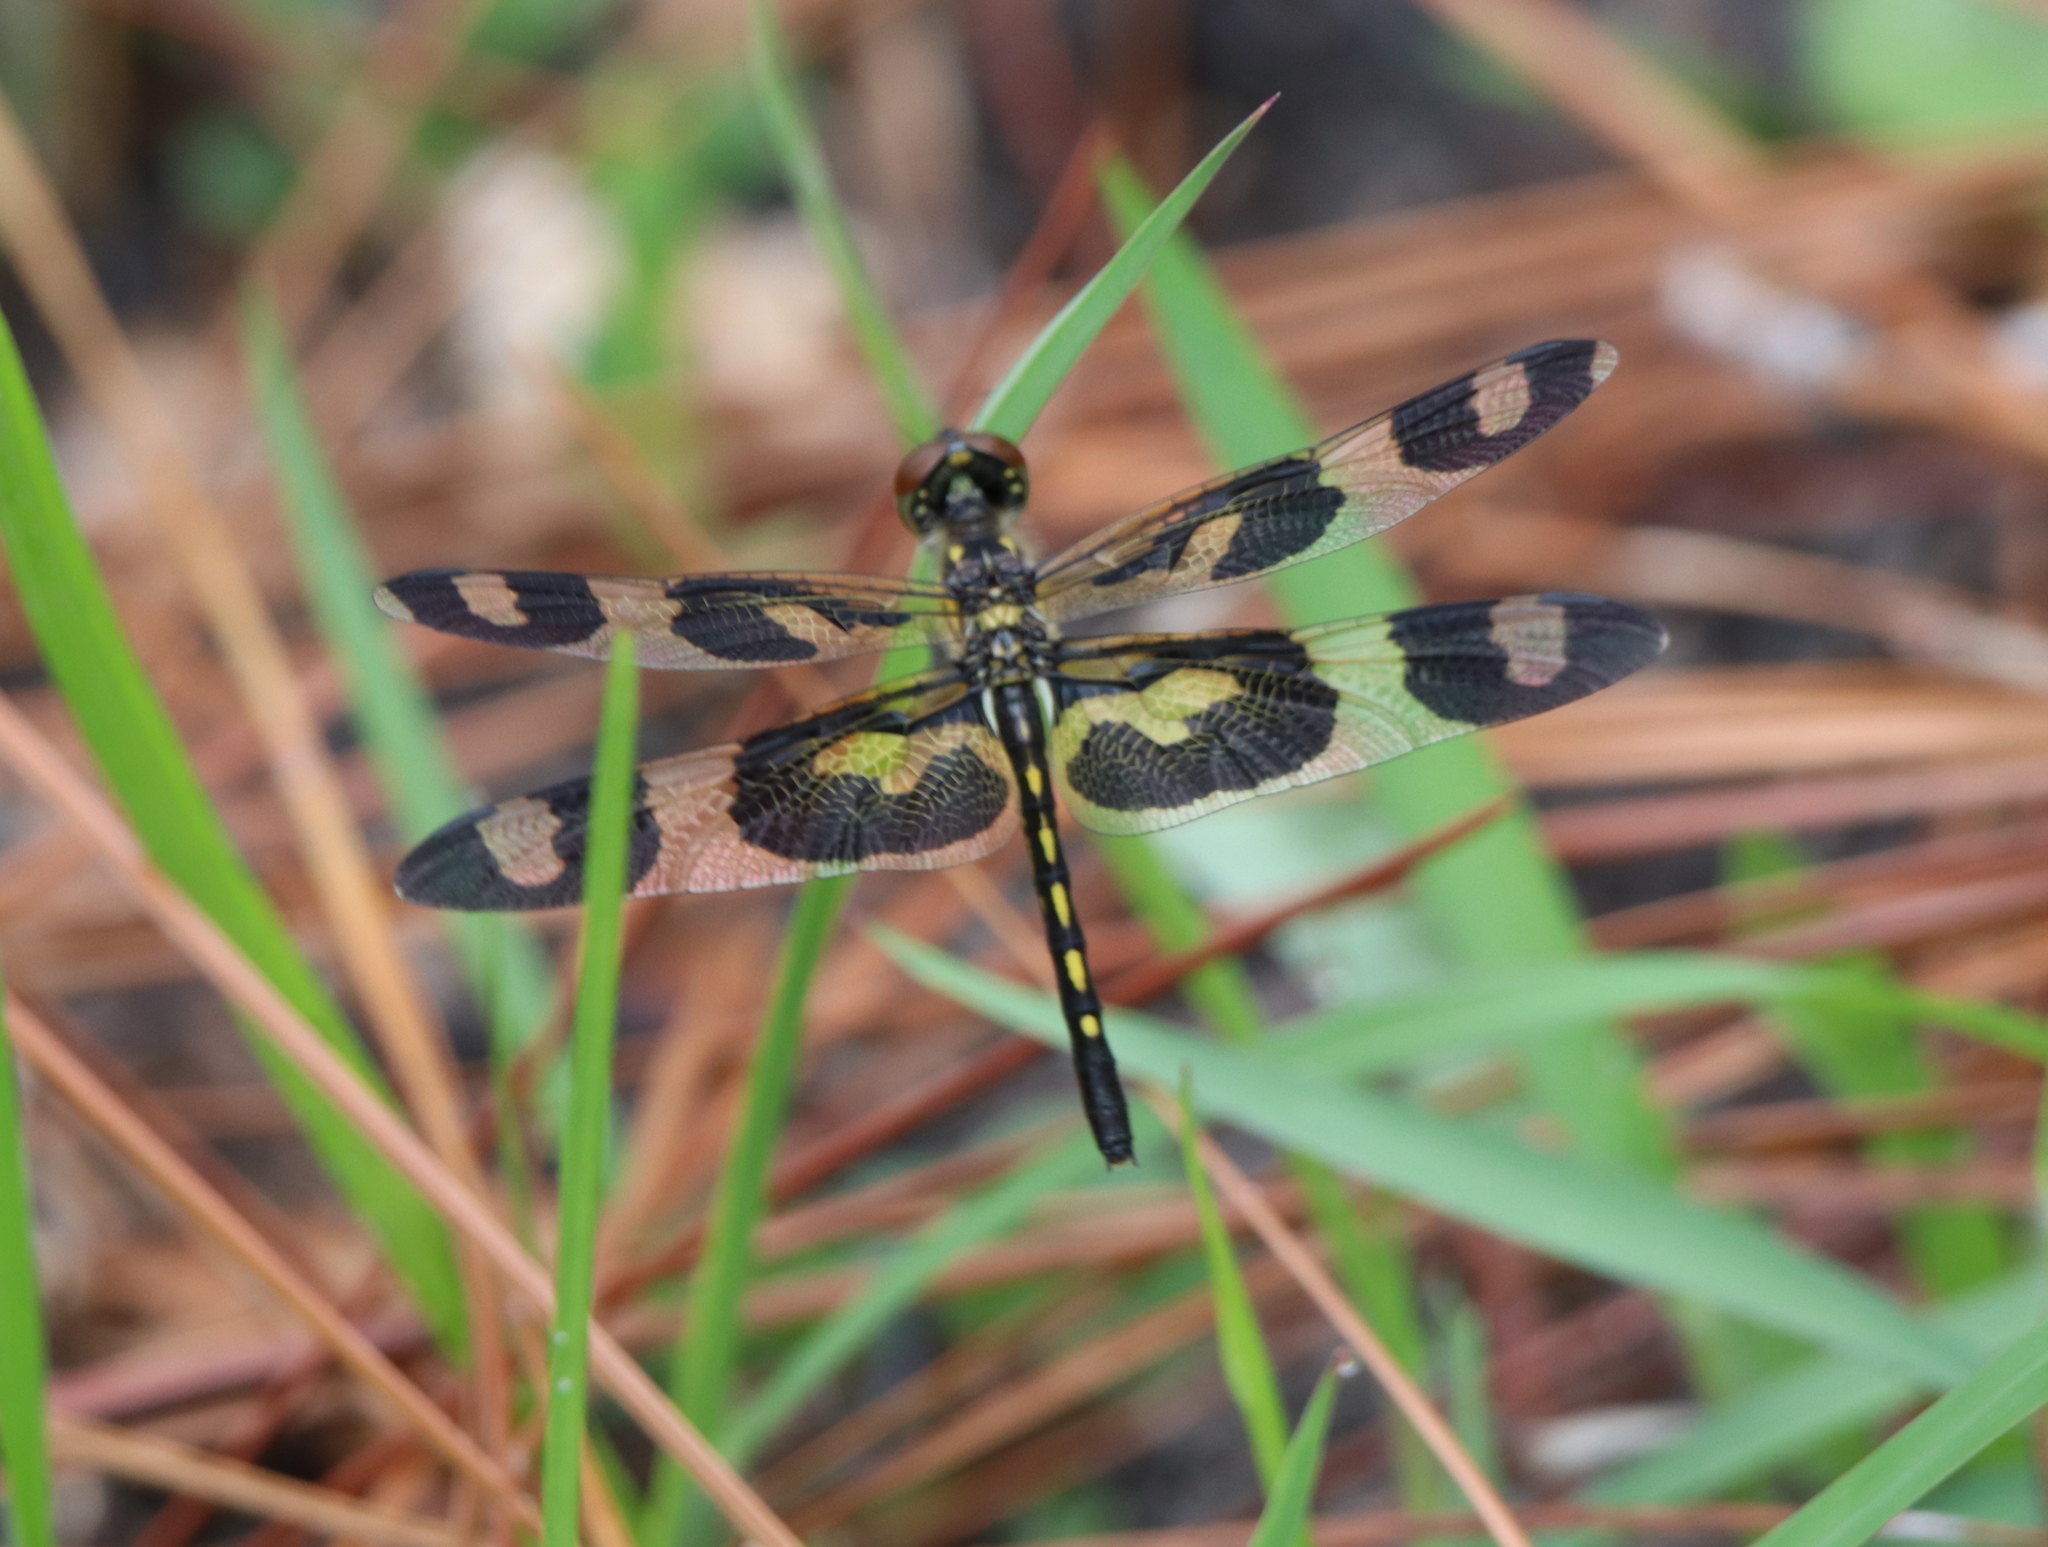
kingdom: Animalia
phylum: Arthropoda
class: Insecta
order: Odonata
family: Libellulidae
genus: Celithemis
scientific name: Celithemis fasciata
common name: Banded pennant
